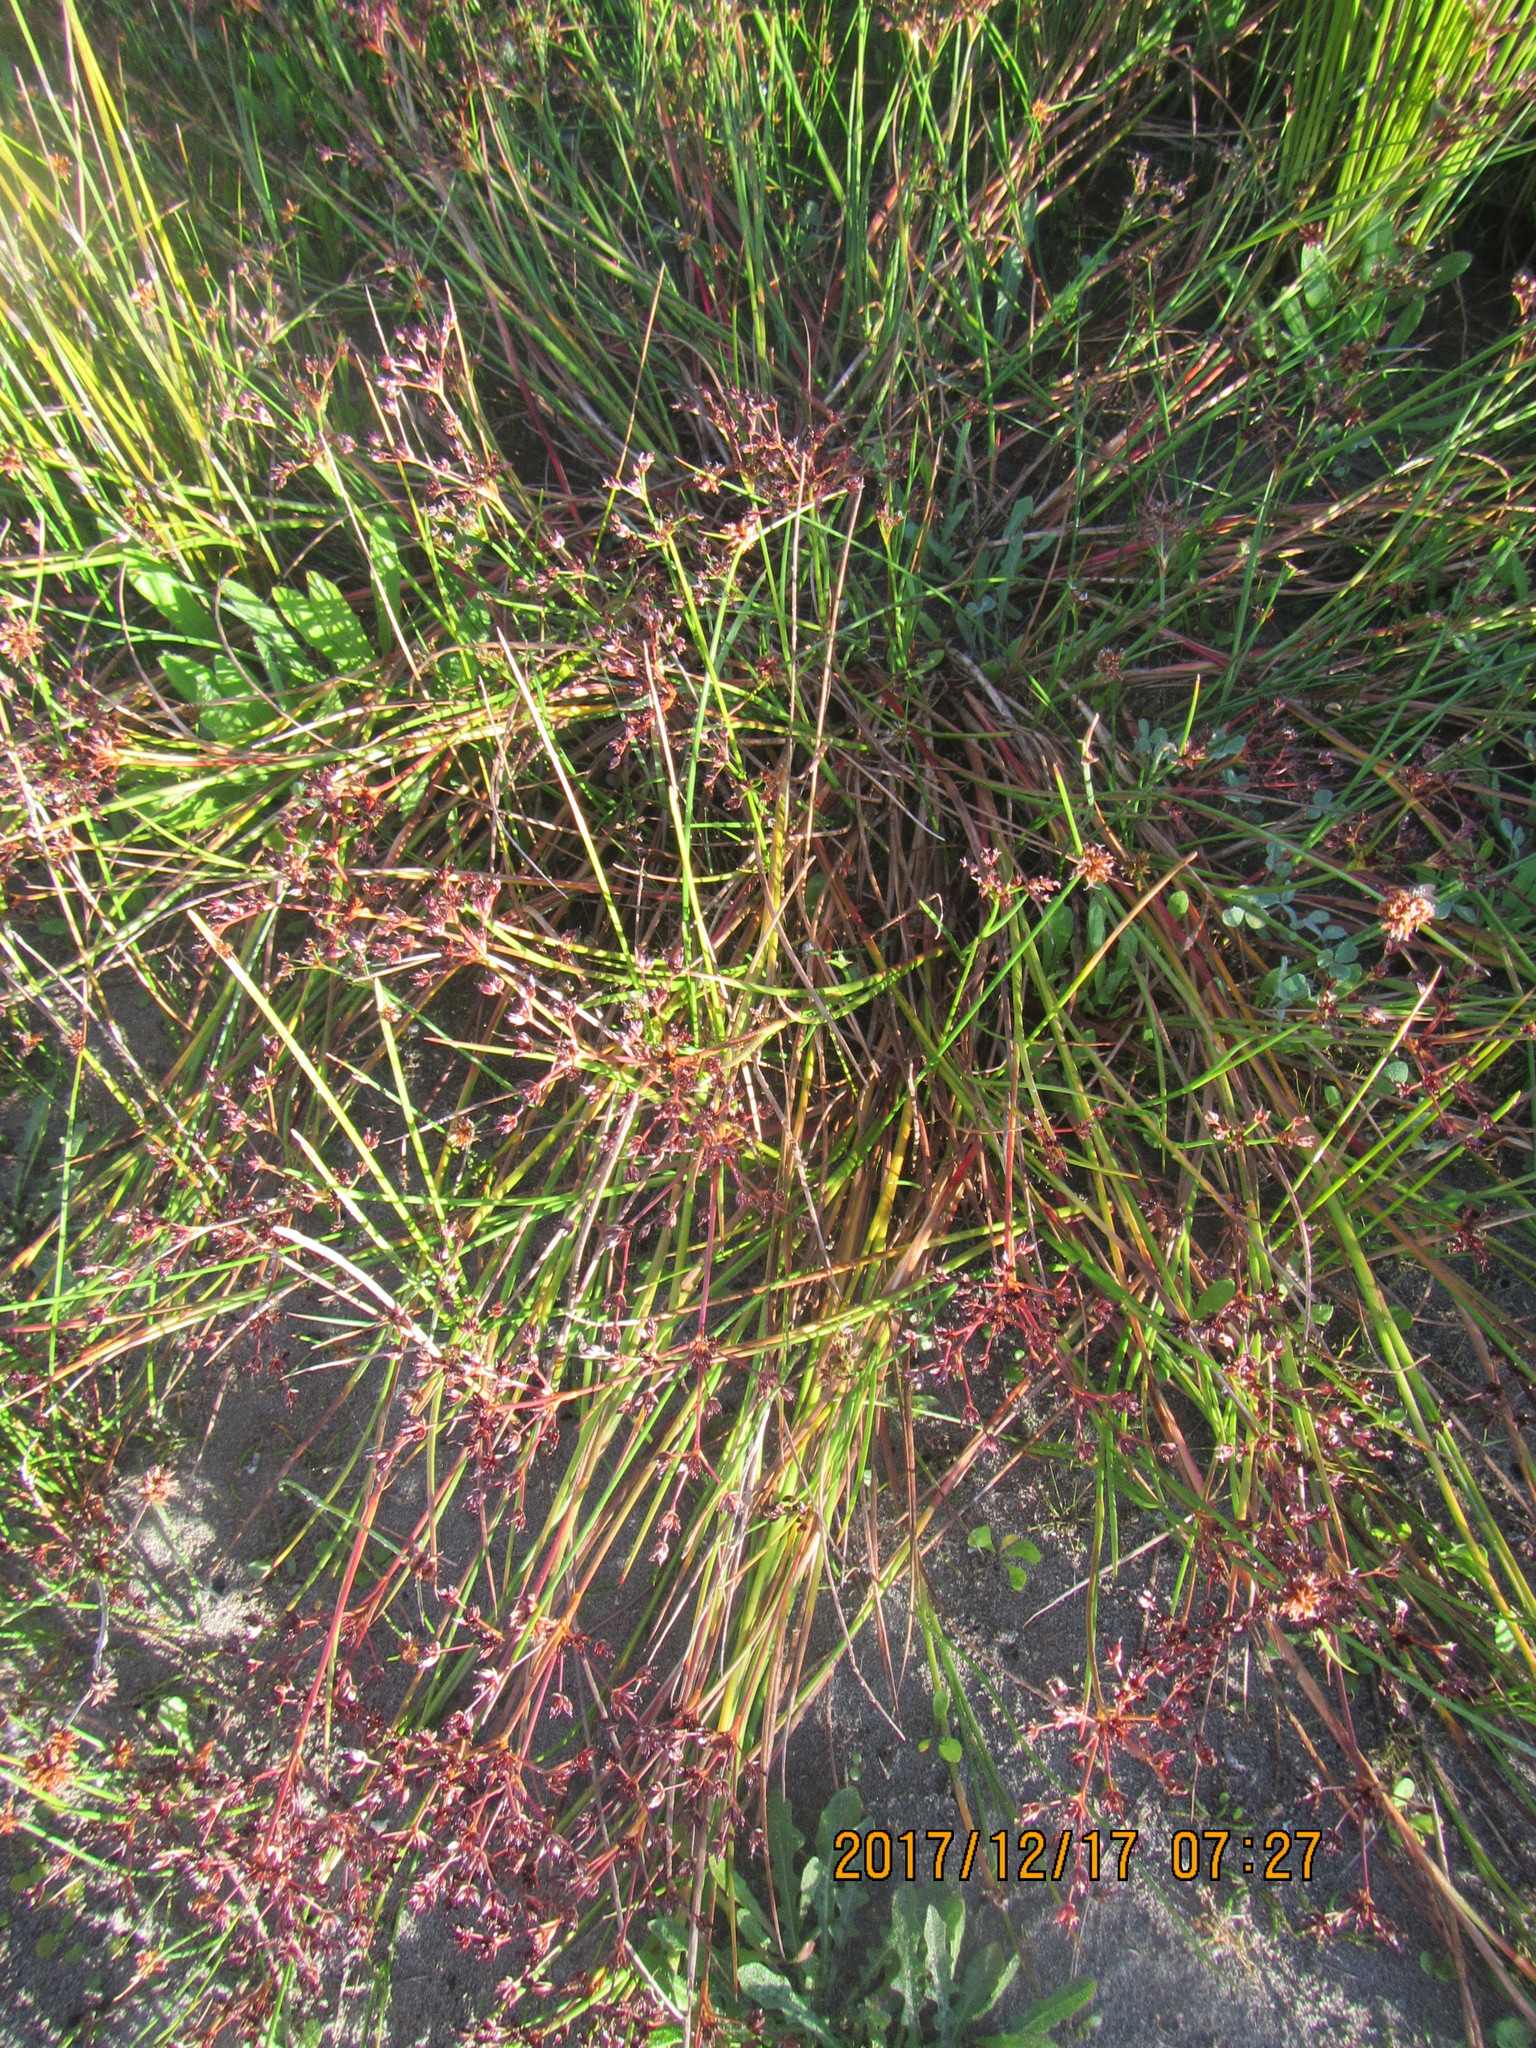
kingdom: Plantae
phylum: Tracheophyta
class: Liliopsida
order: Poales
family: Juncaceae
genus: Juncus
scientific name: Juncus bulbosus
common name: Bulbous rush
